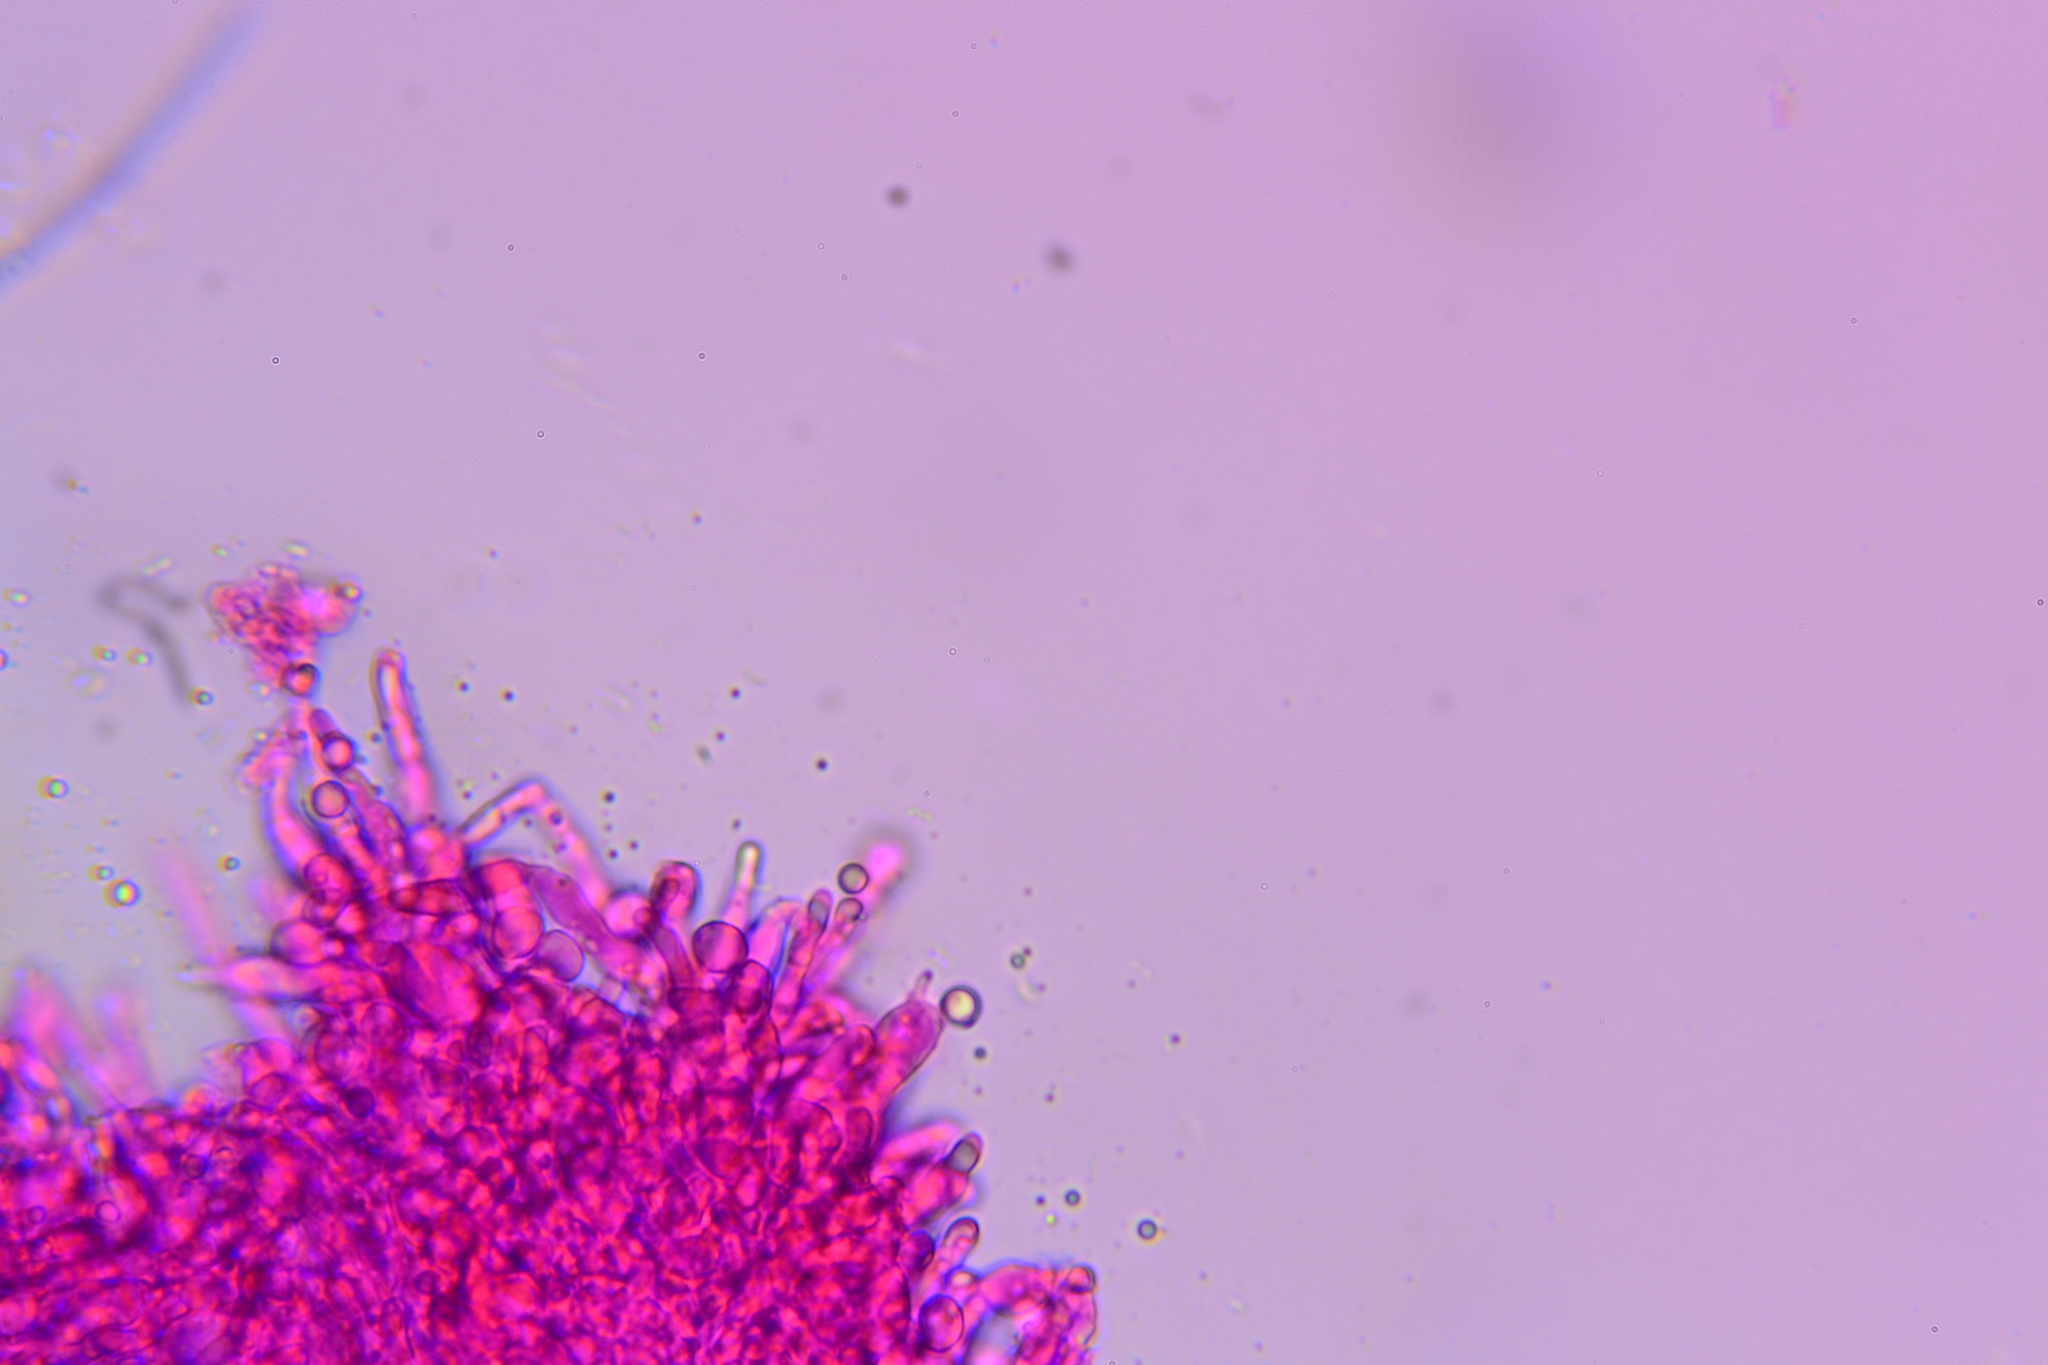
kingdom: Fungi
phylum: Basidiomycota
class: Agaricomycetes
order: Cantharellales
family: Hydnaceae
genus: Hydnum
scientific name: Hydnum subolympicum
